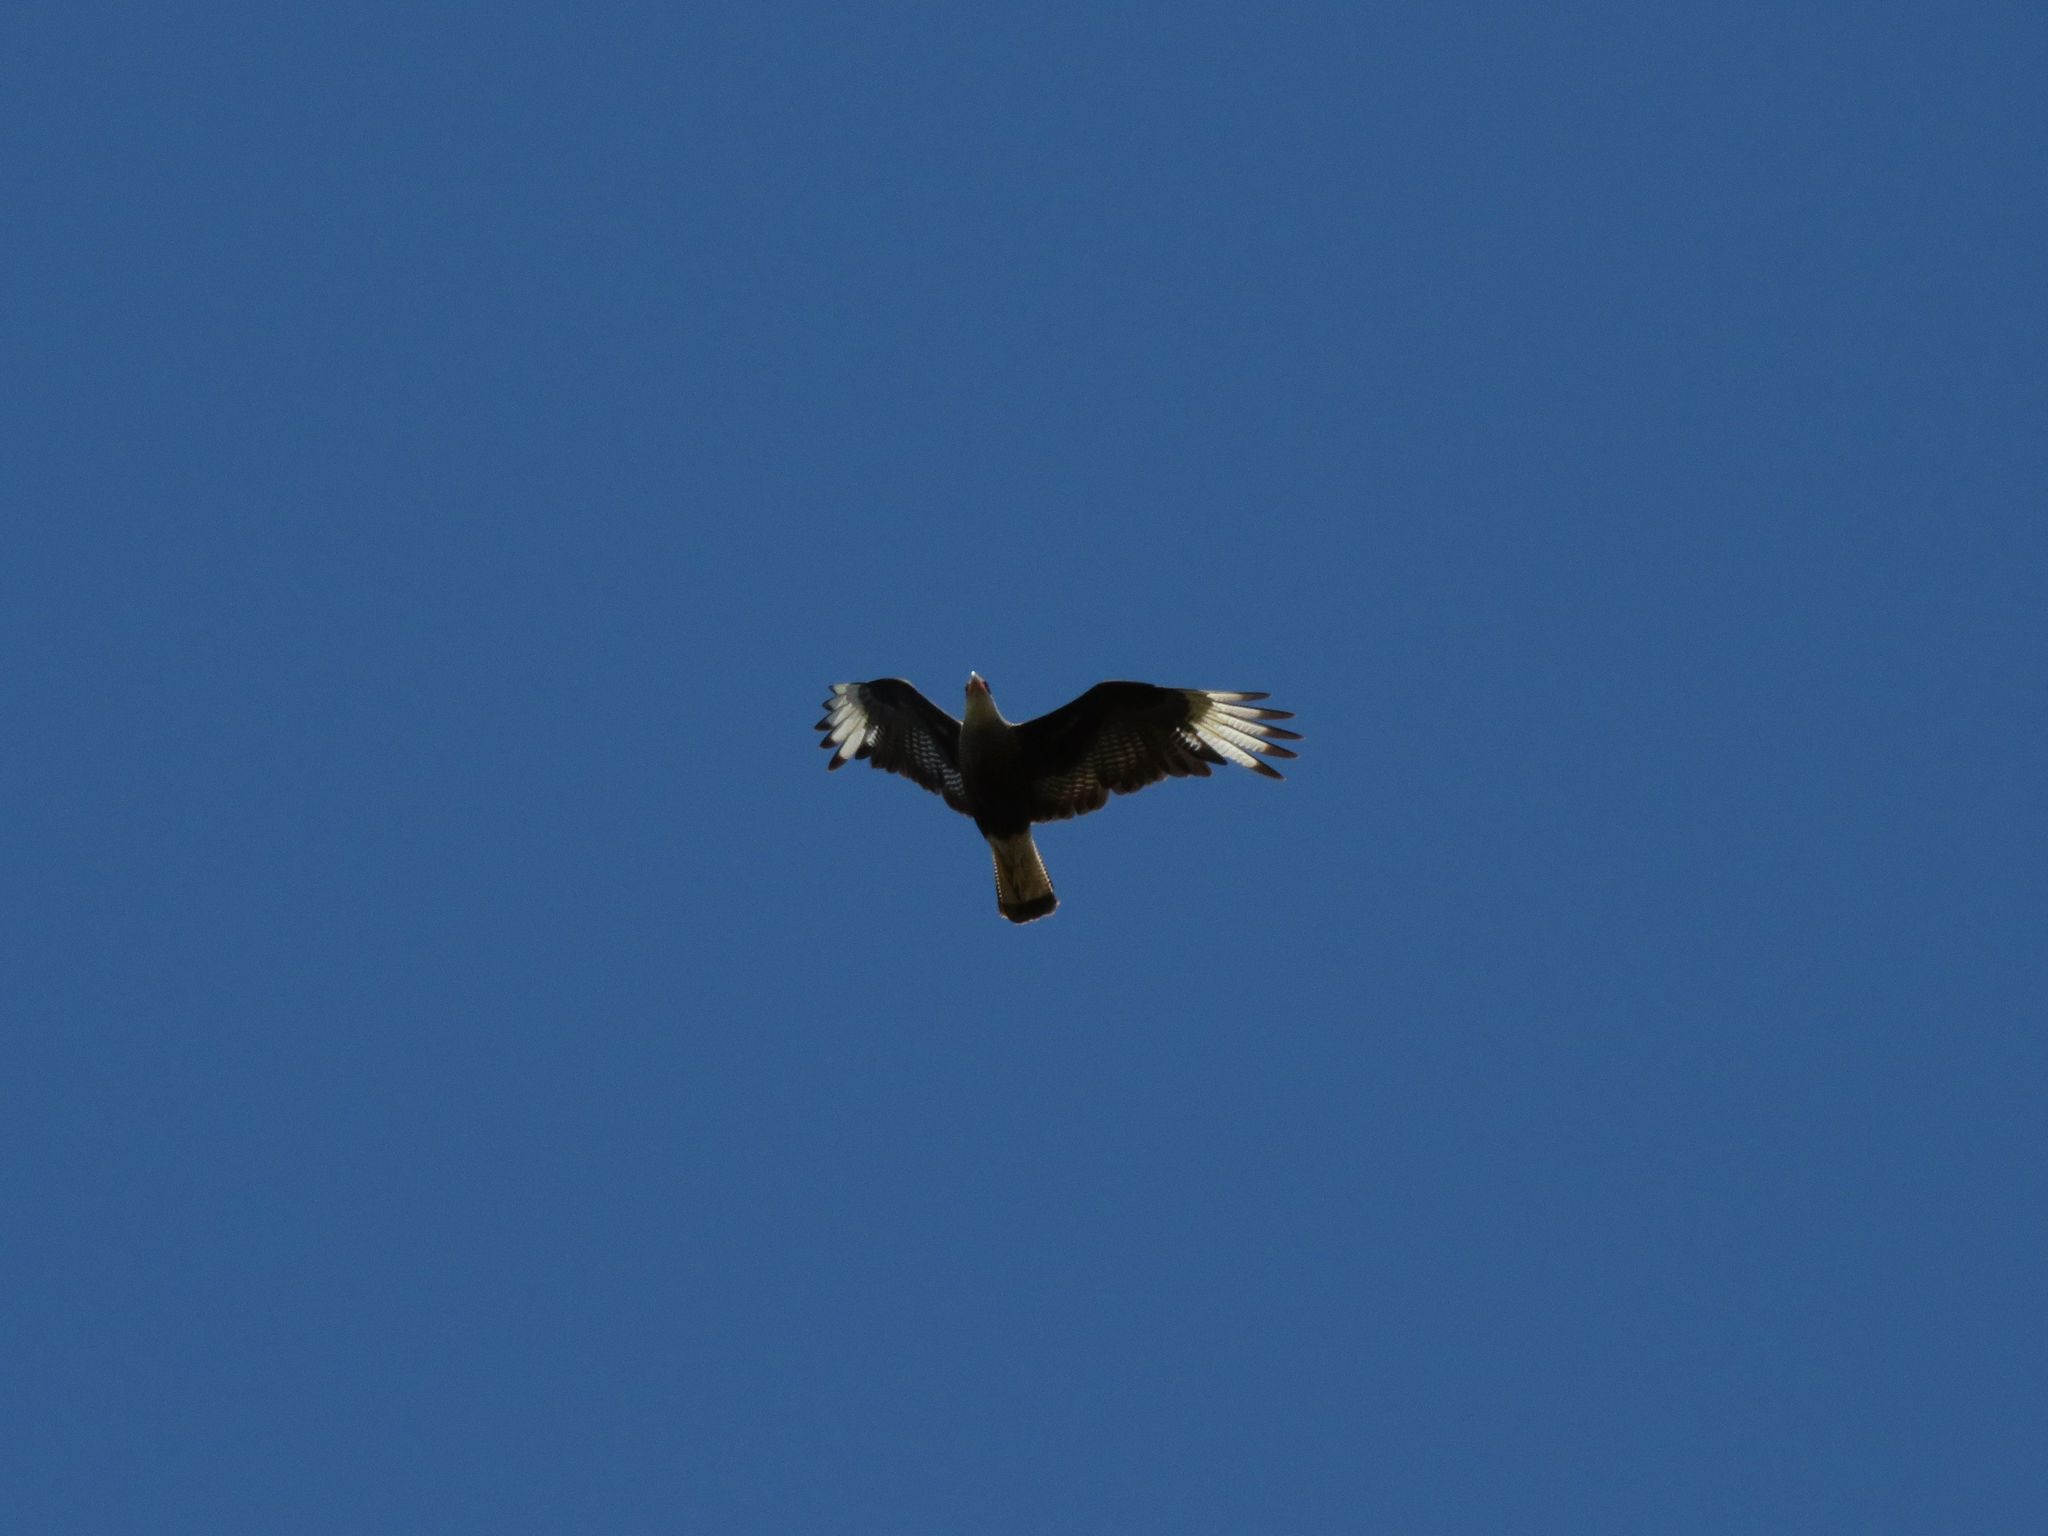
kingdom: Animalia
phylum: Chordata
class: Aves
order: Falconiformes
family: Falconidae
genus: Caracara
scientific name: Caracara plancus
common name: Southern caracara
